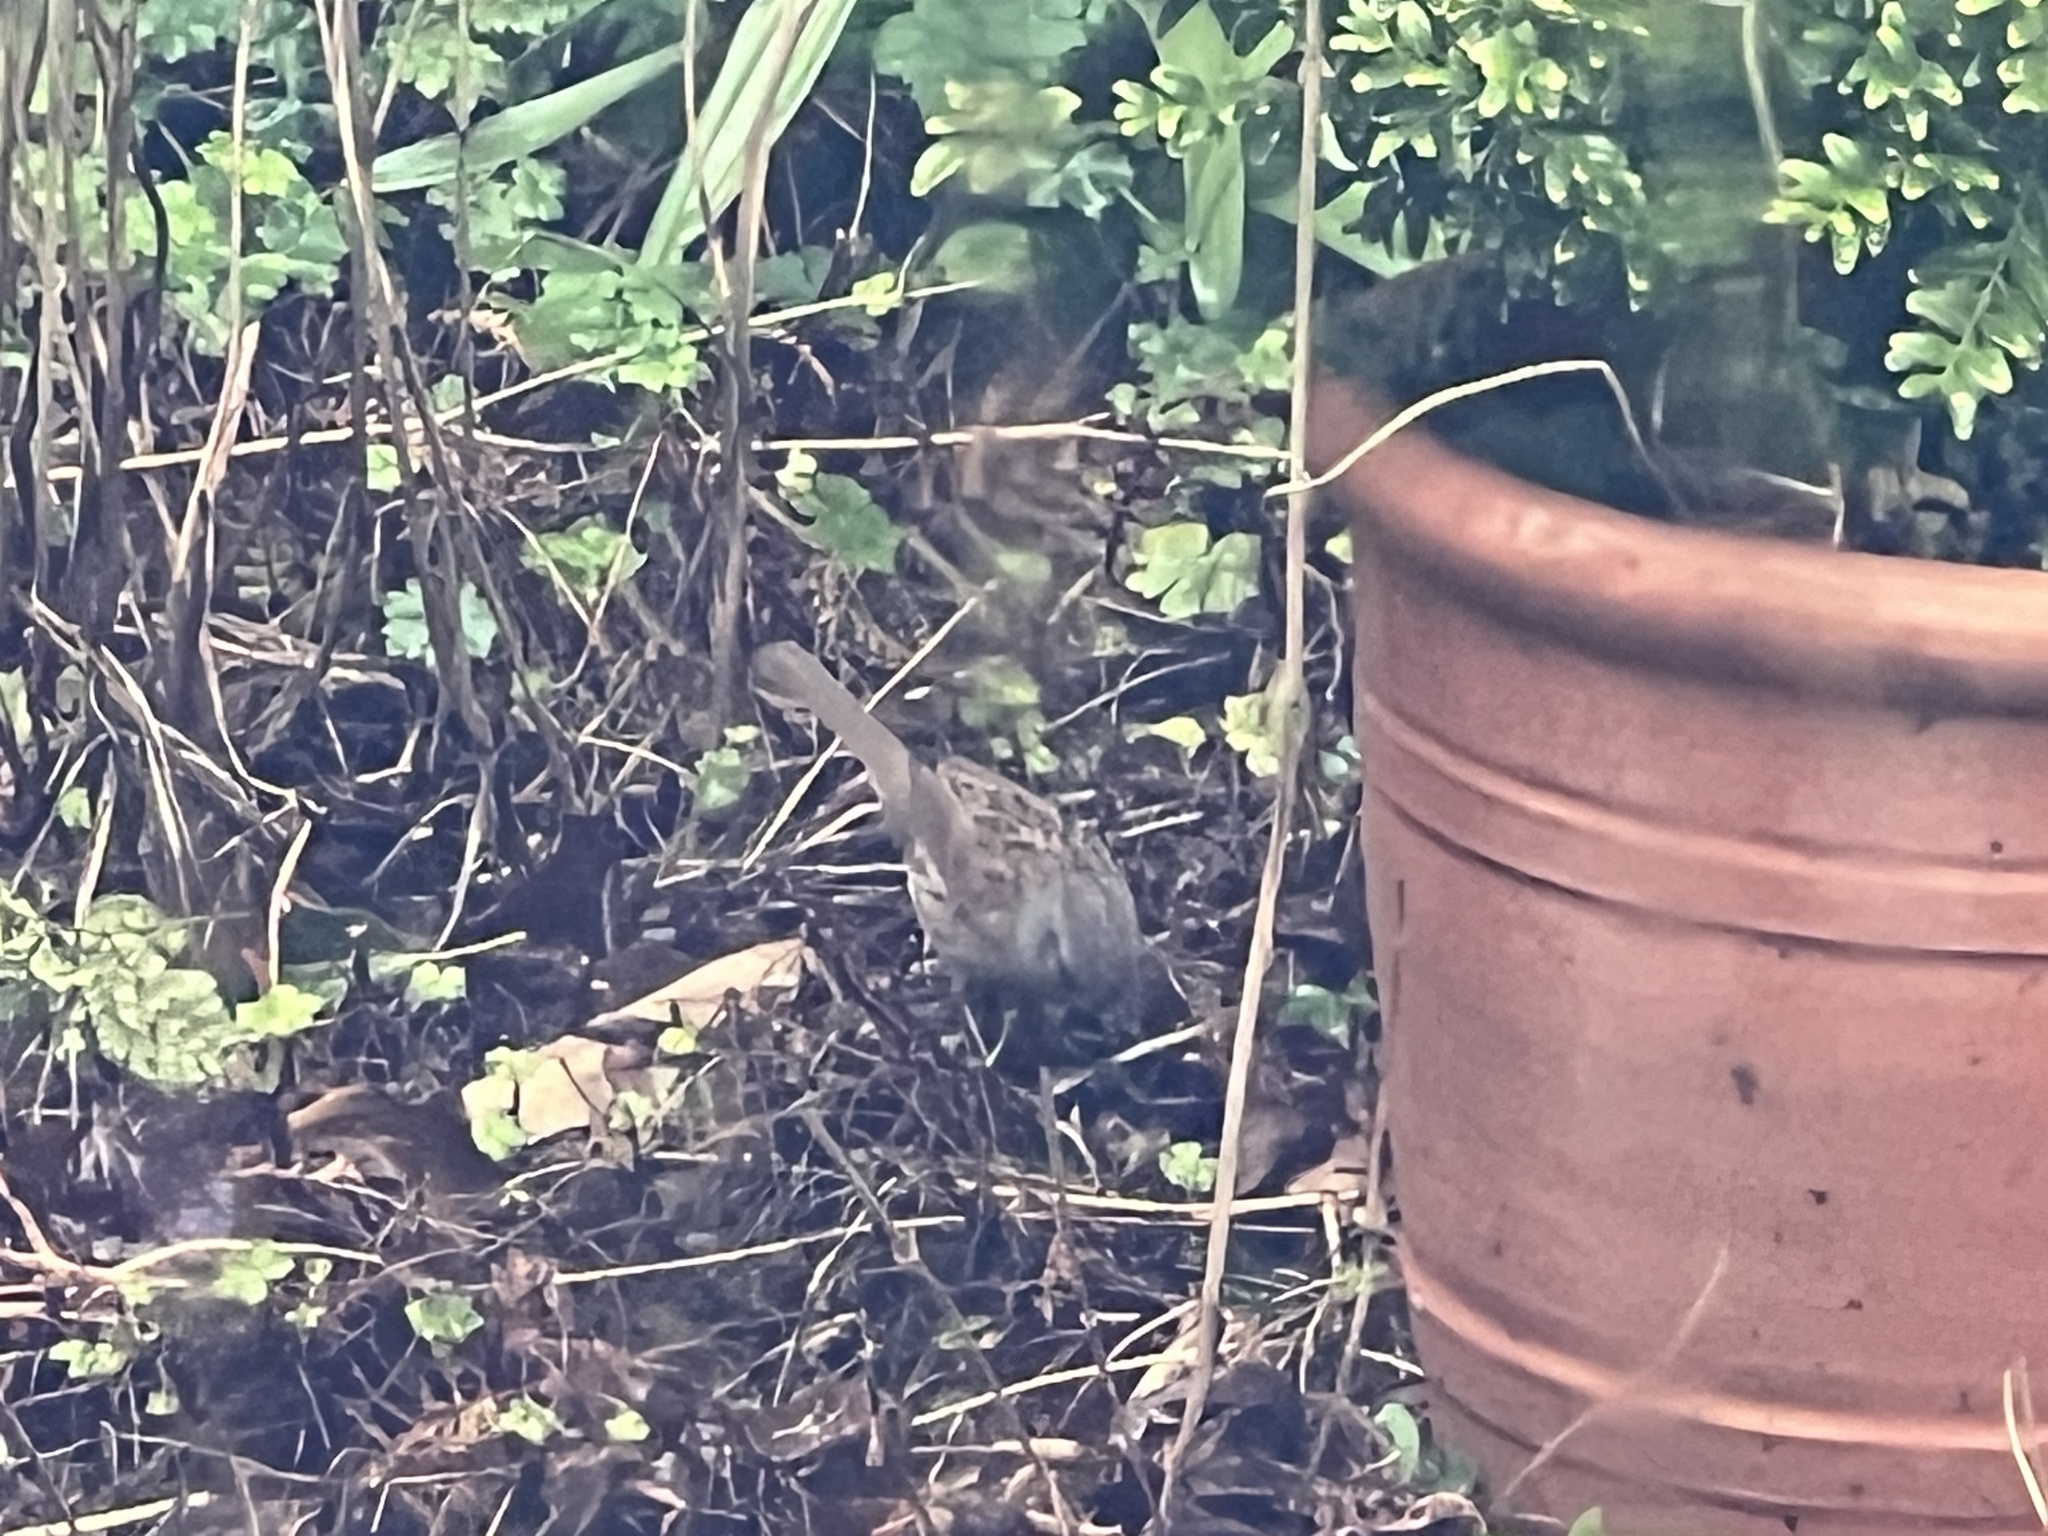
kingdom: Animalia
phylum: Chordata
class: Aves
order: Passeriformes
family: Prunellidae
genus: Prunella
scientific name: Prunella modularis
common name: Dunnock
